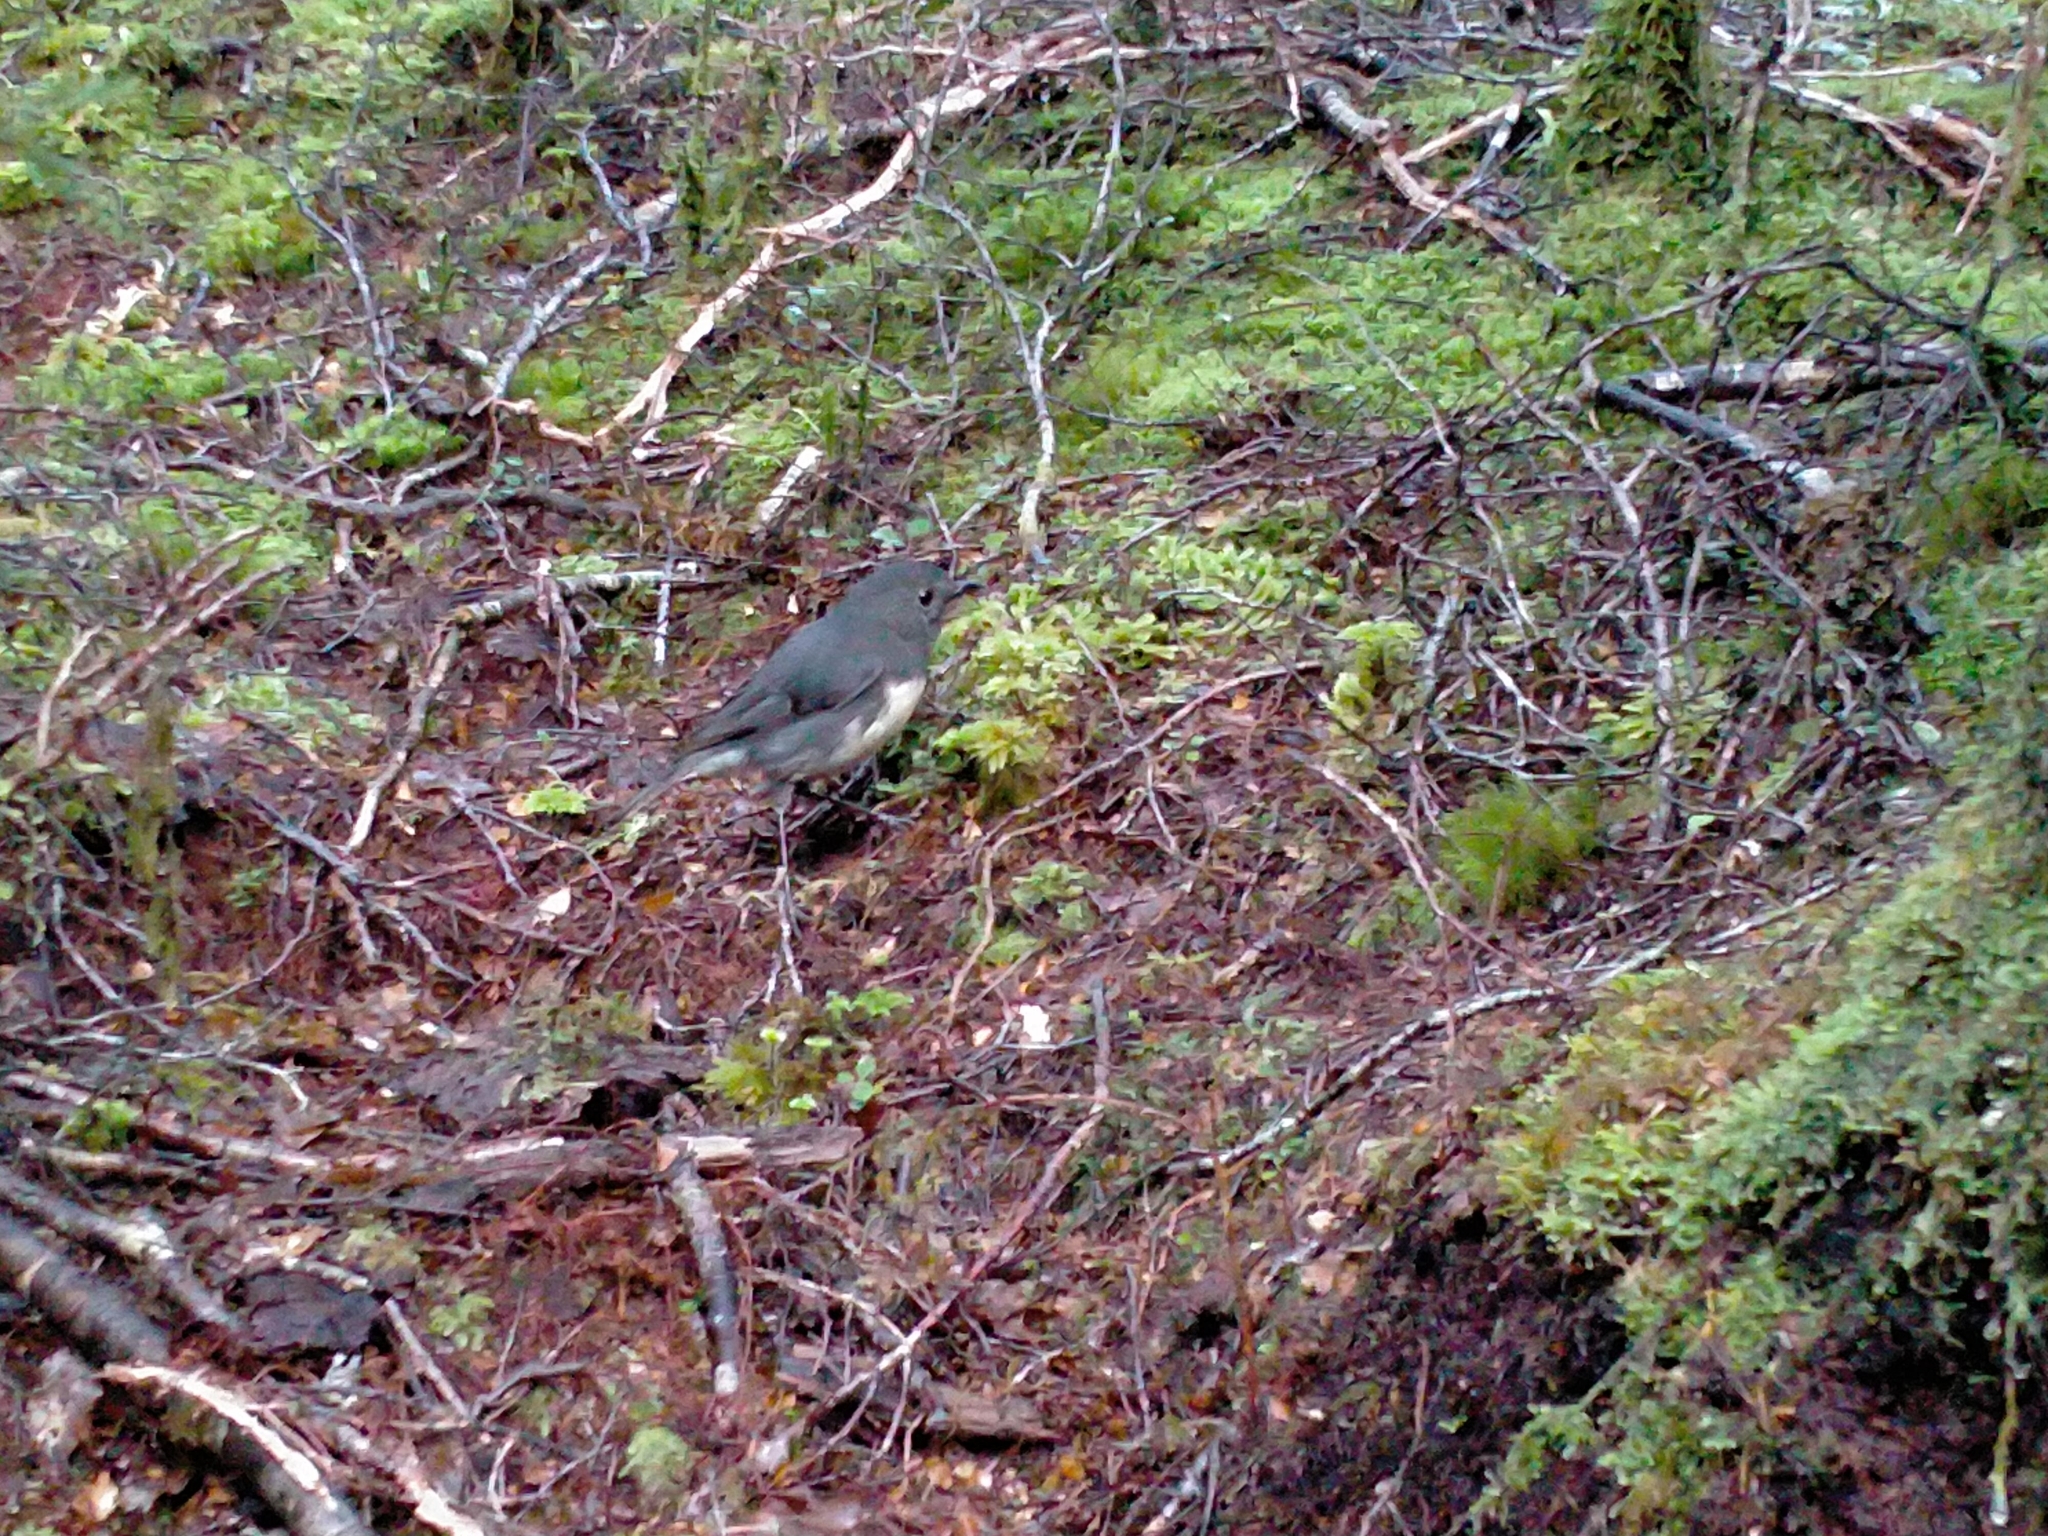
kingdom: Animalia
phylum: Chordata
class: Aves
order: Passeriformes
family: Petroicidae
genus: Petroica
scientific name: Petroica australis
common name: New zealand robin
